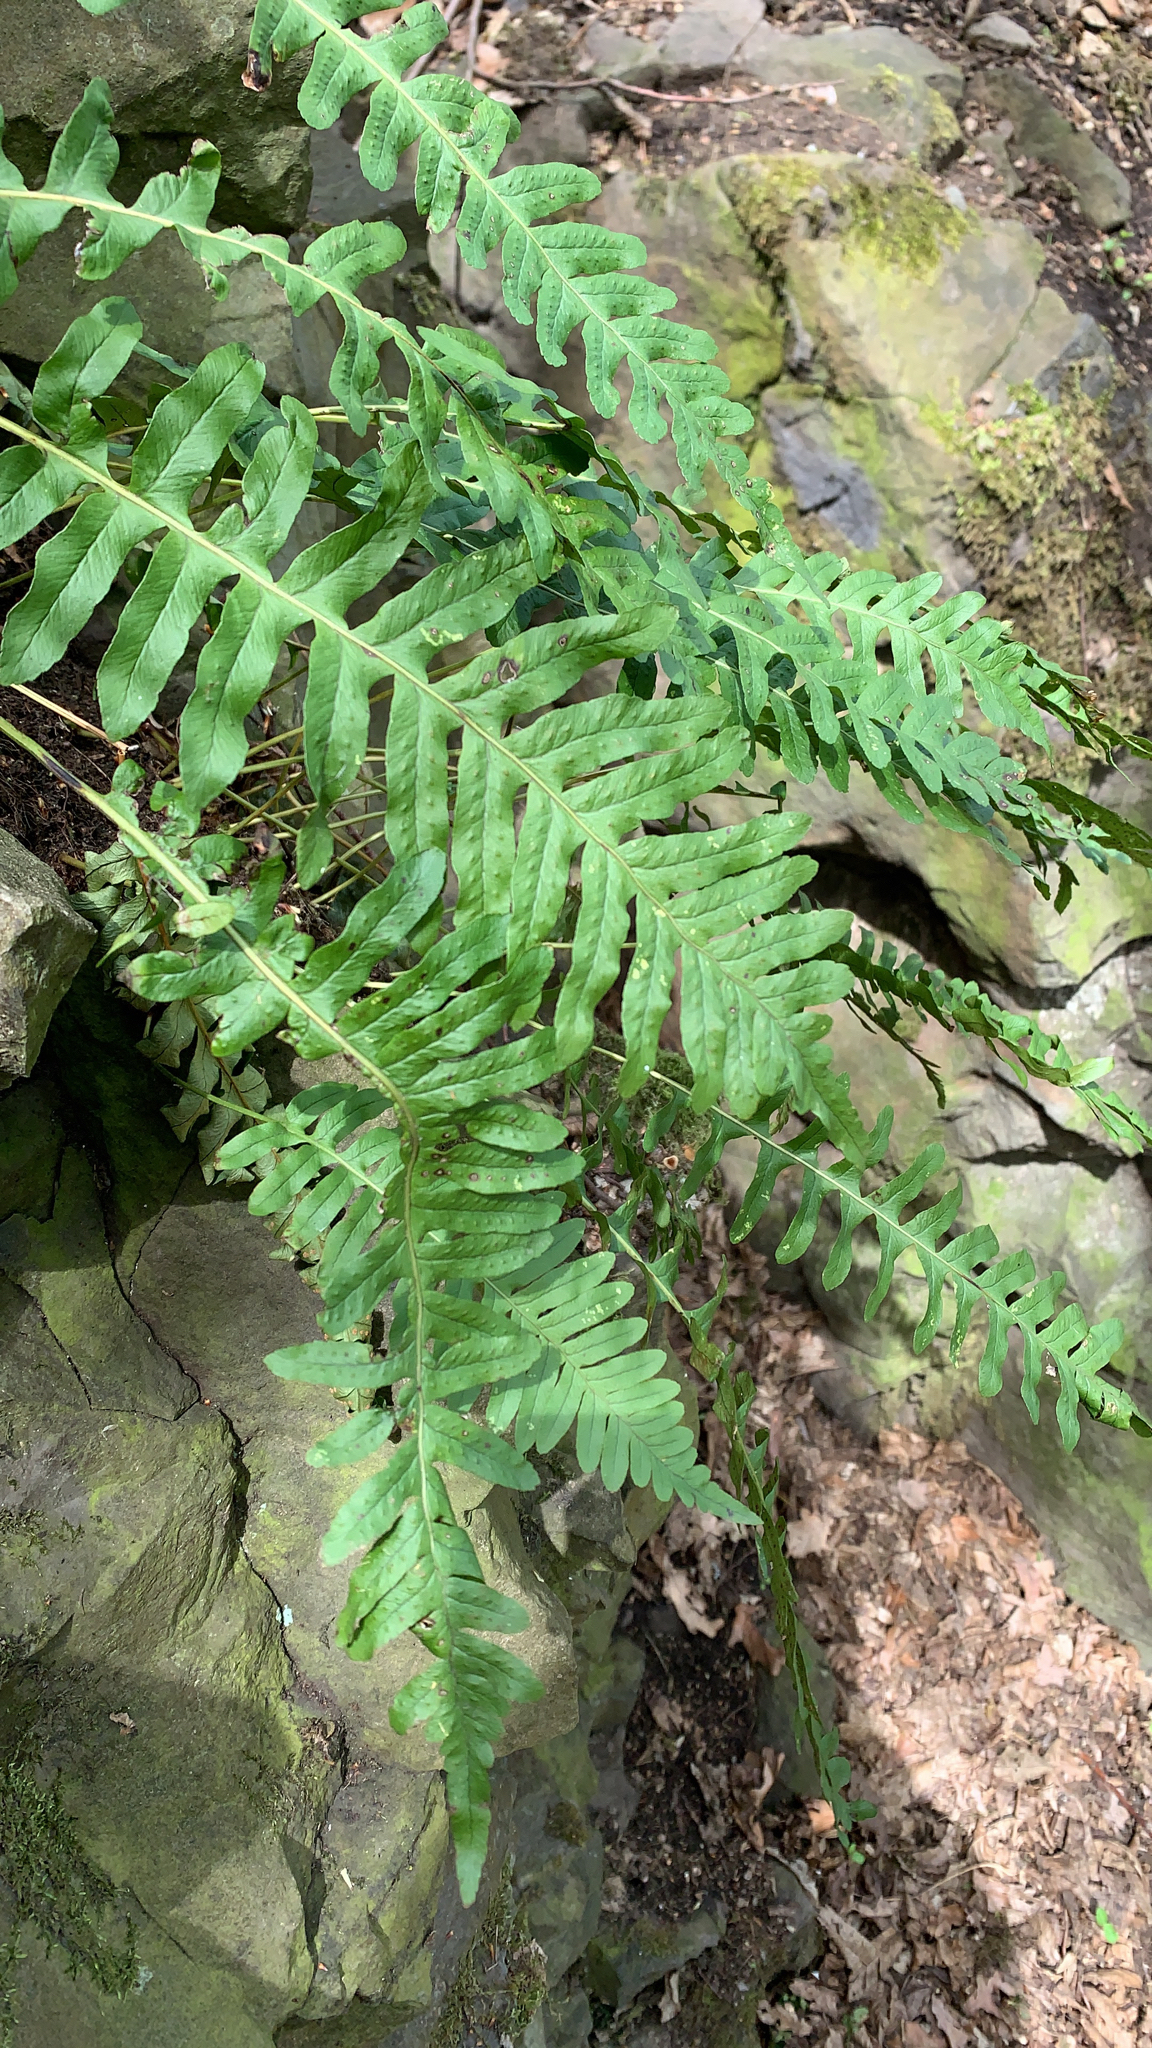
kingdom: Plantae
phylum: Tracheophyta
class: Polypodiopsida
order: Polypodiales
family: Polypodiaceae
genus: Polypodium
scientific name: Polypodium vulgare
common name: Common polypody
